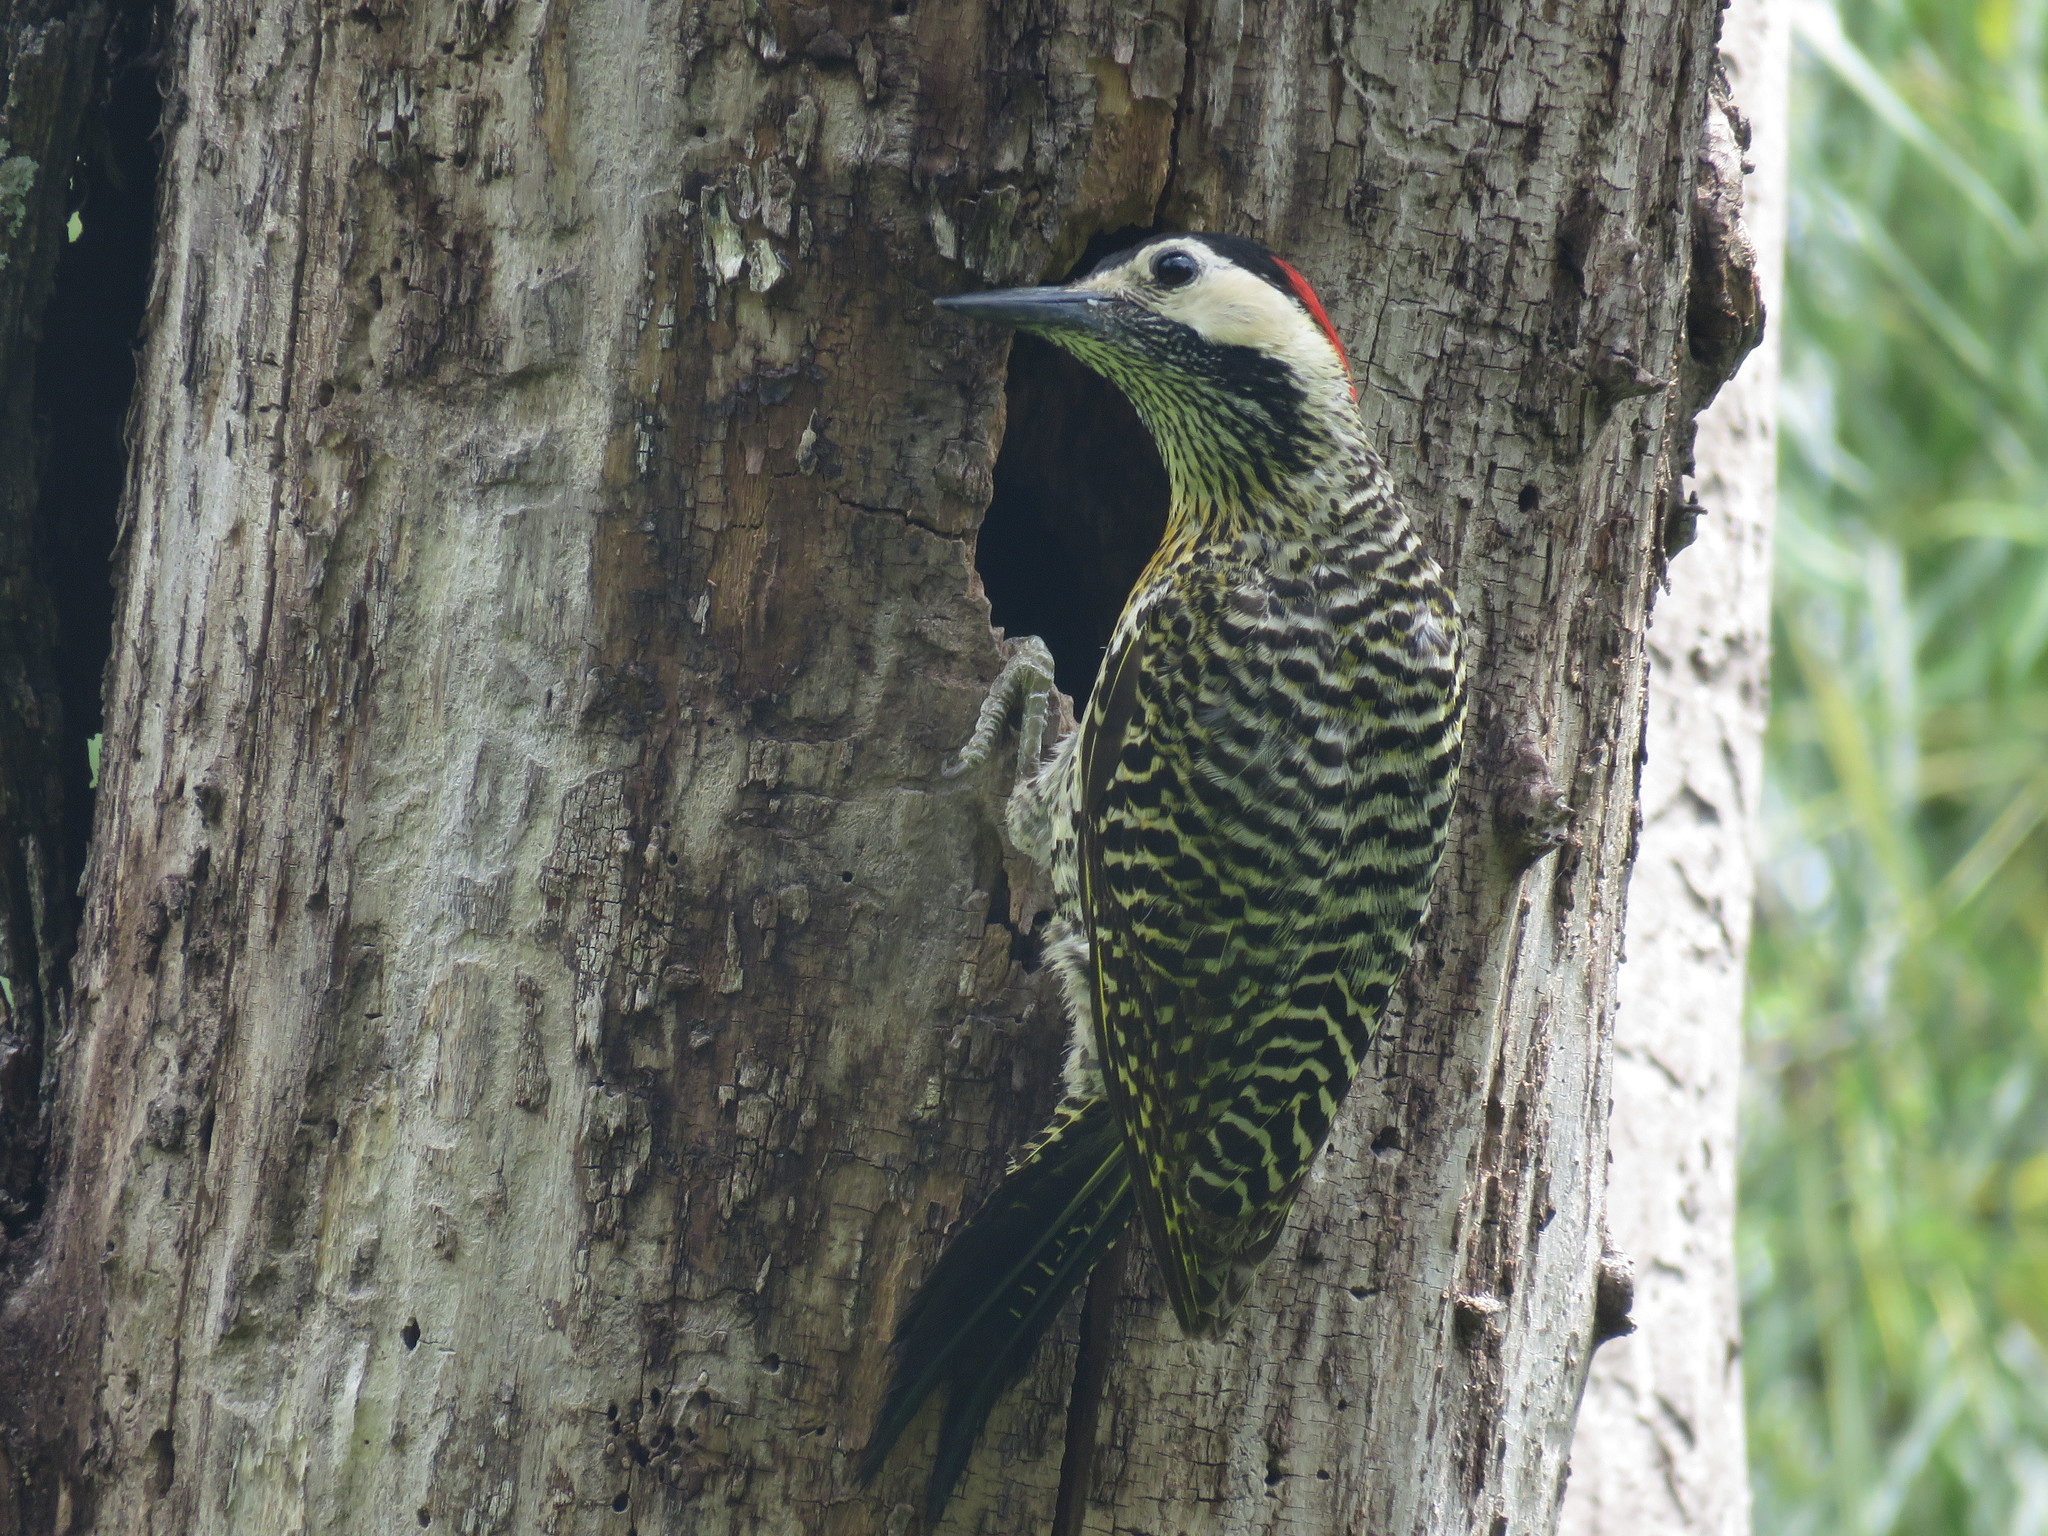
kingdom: Animalia
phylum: Chordata
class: Aves
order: Piciformes
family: Picidae
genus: Colaptes
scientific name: Colaptes melanochloros
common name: Green-barred woodpecker
